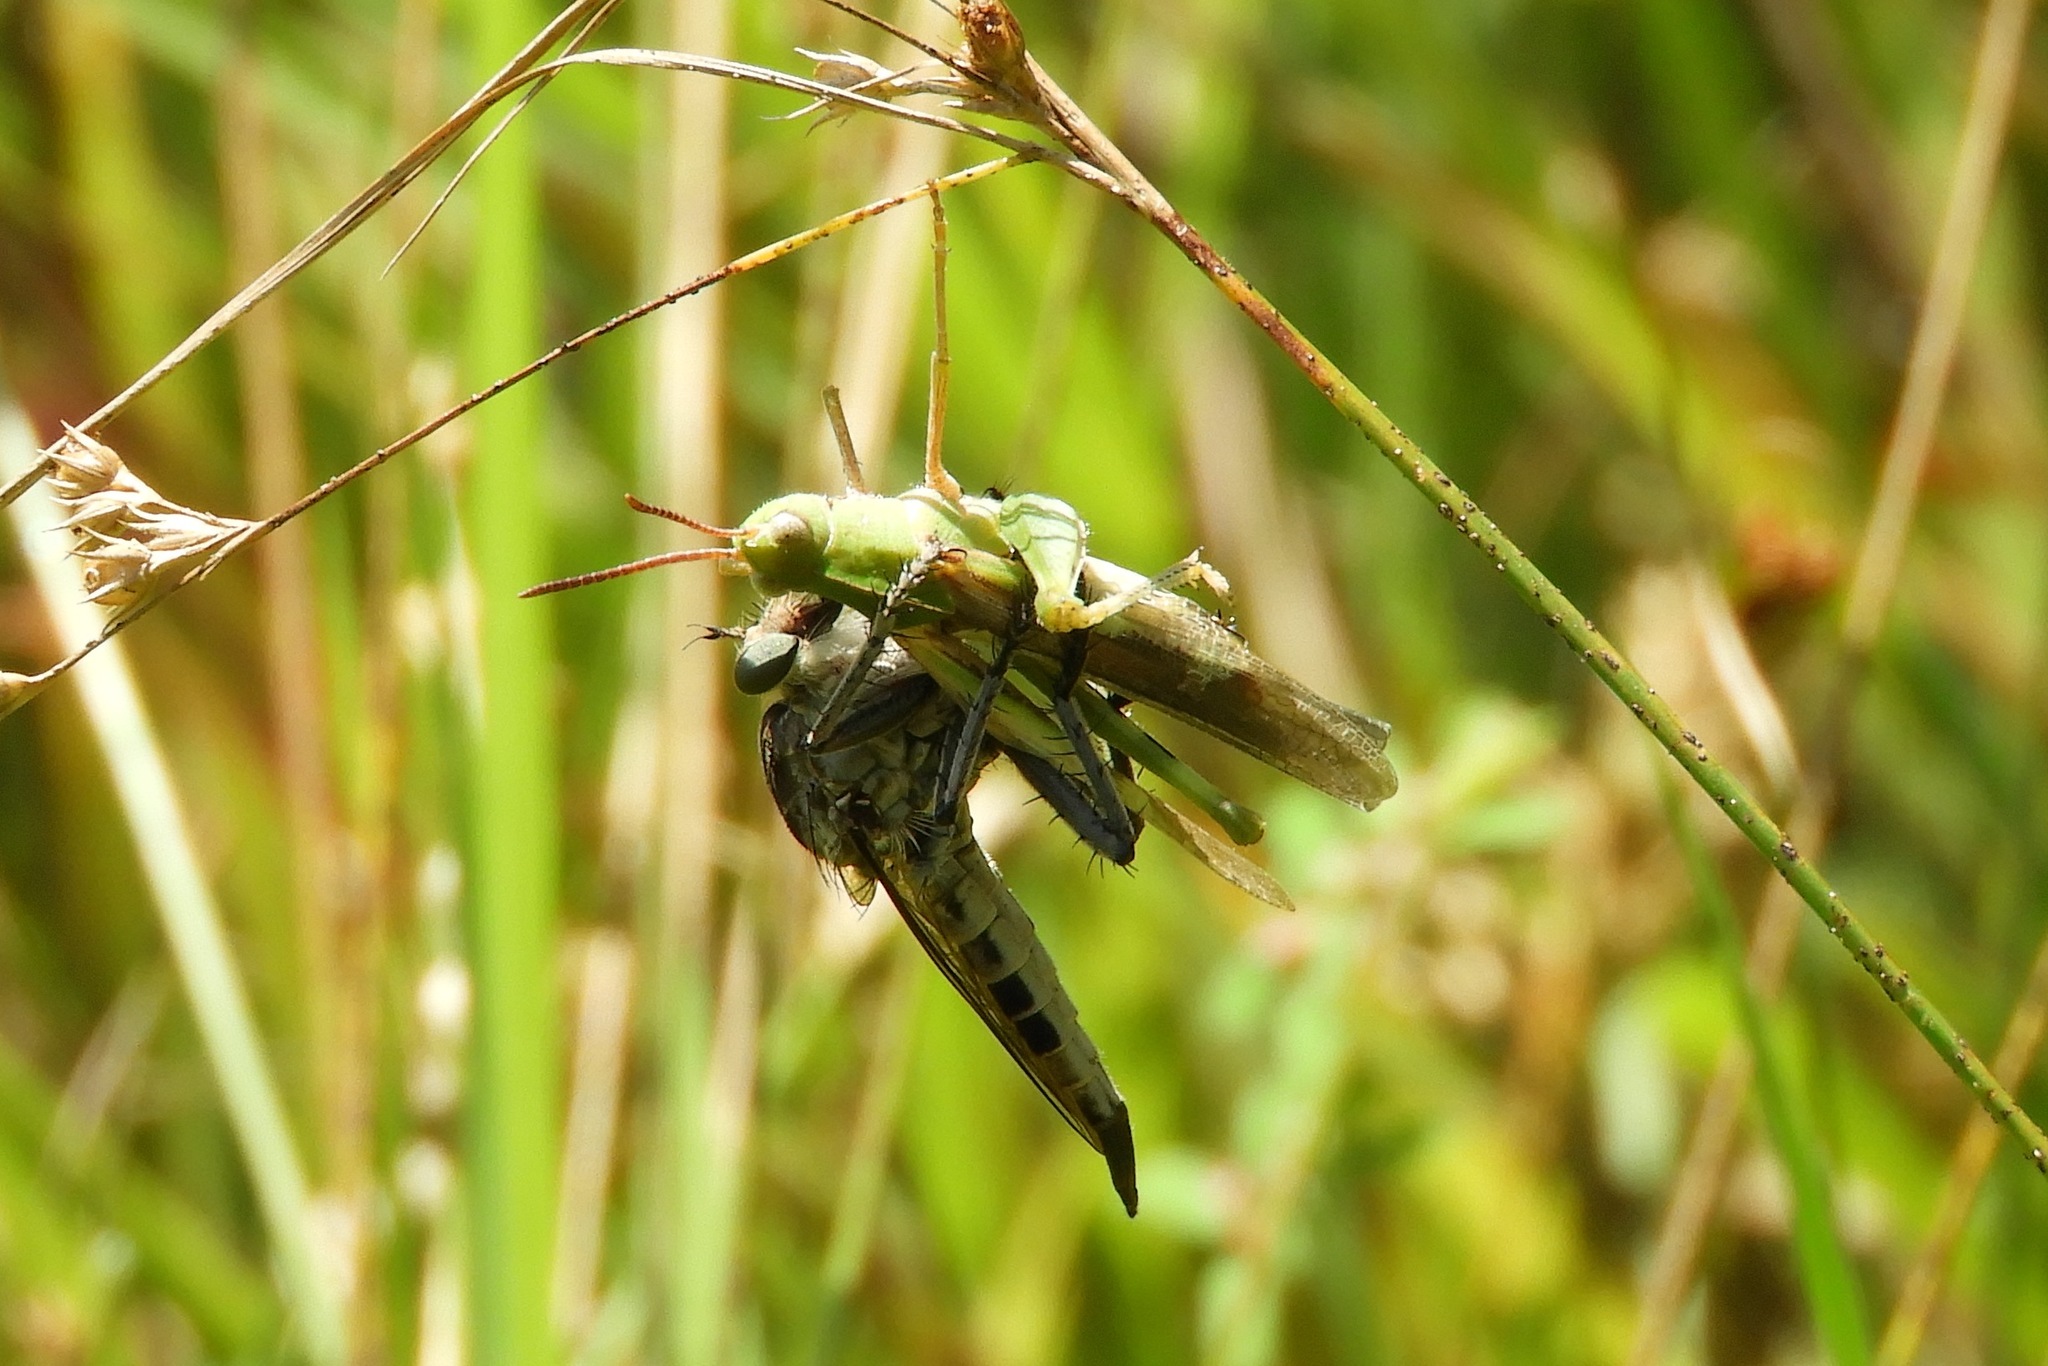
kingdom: Animalia
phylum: Arthropoda
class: Insecta
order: Diptera
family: Asilidae
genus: Triorla
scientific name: Triorla interrupta
